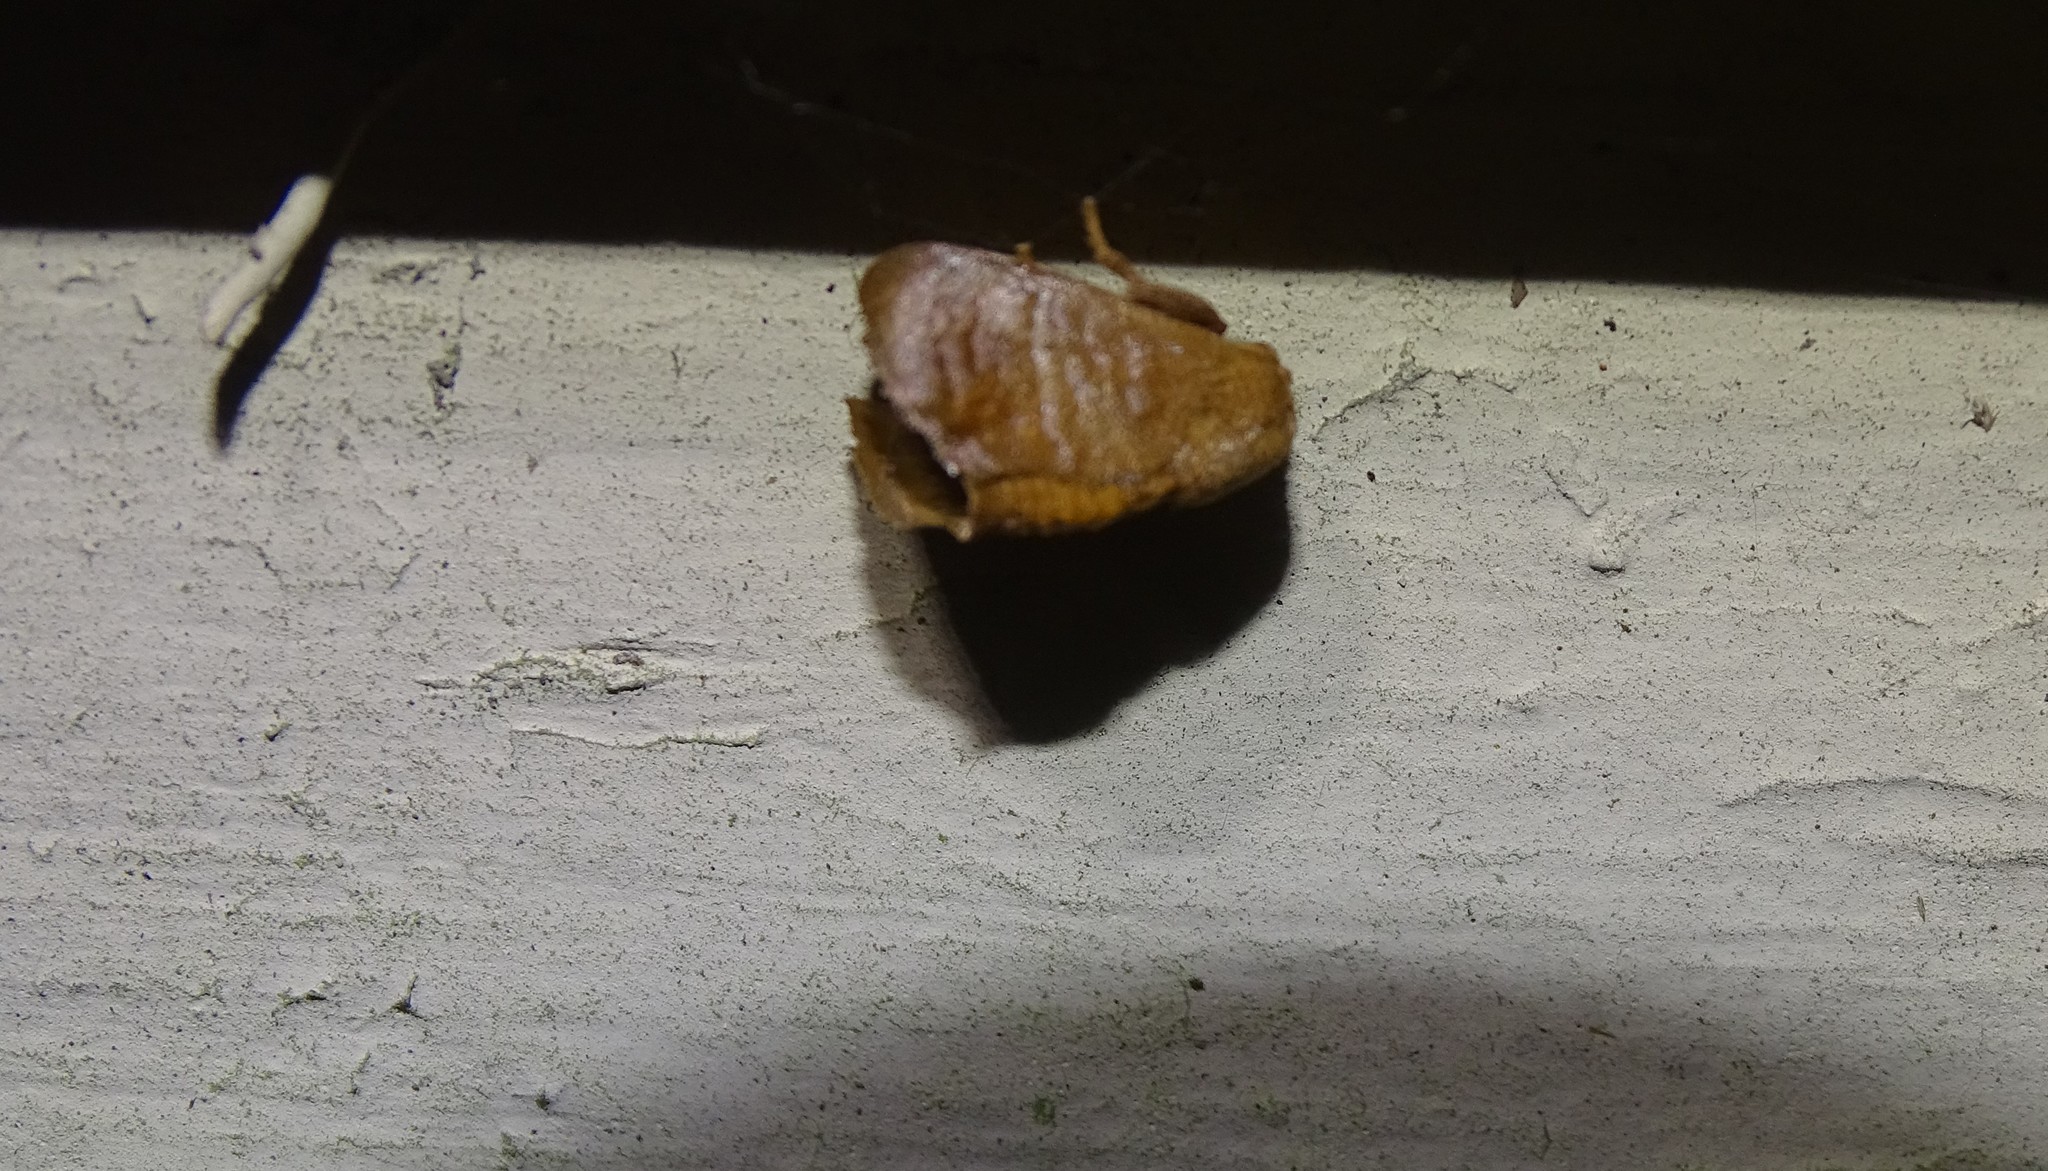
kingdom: Animalia
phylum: Arthropoda
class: Insecta
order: Lepidoptera
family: Limacodidae
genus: Isa
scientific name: Isa textula
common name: Crowned slug moth
